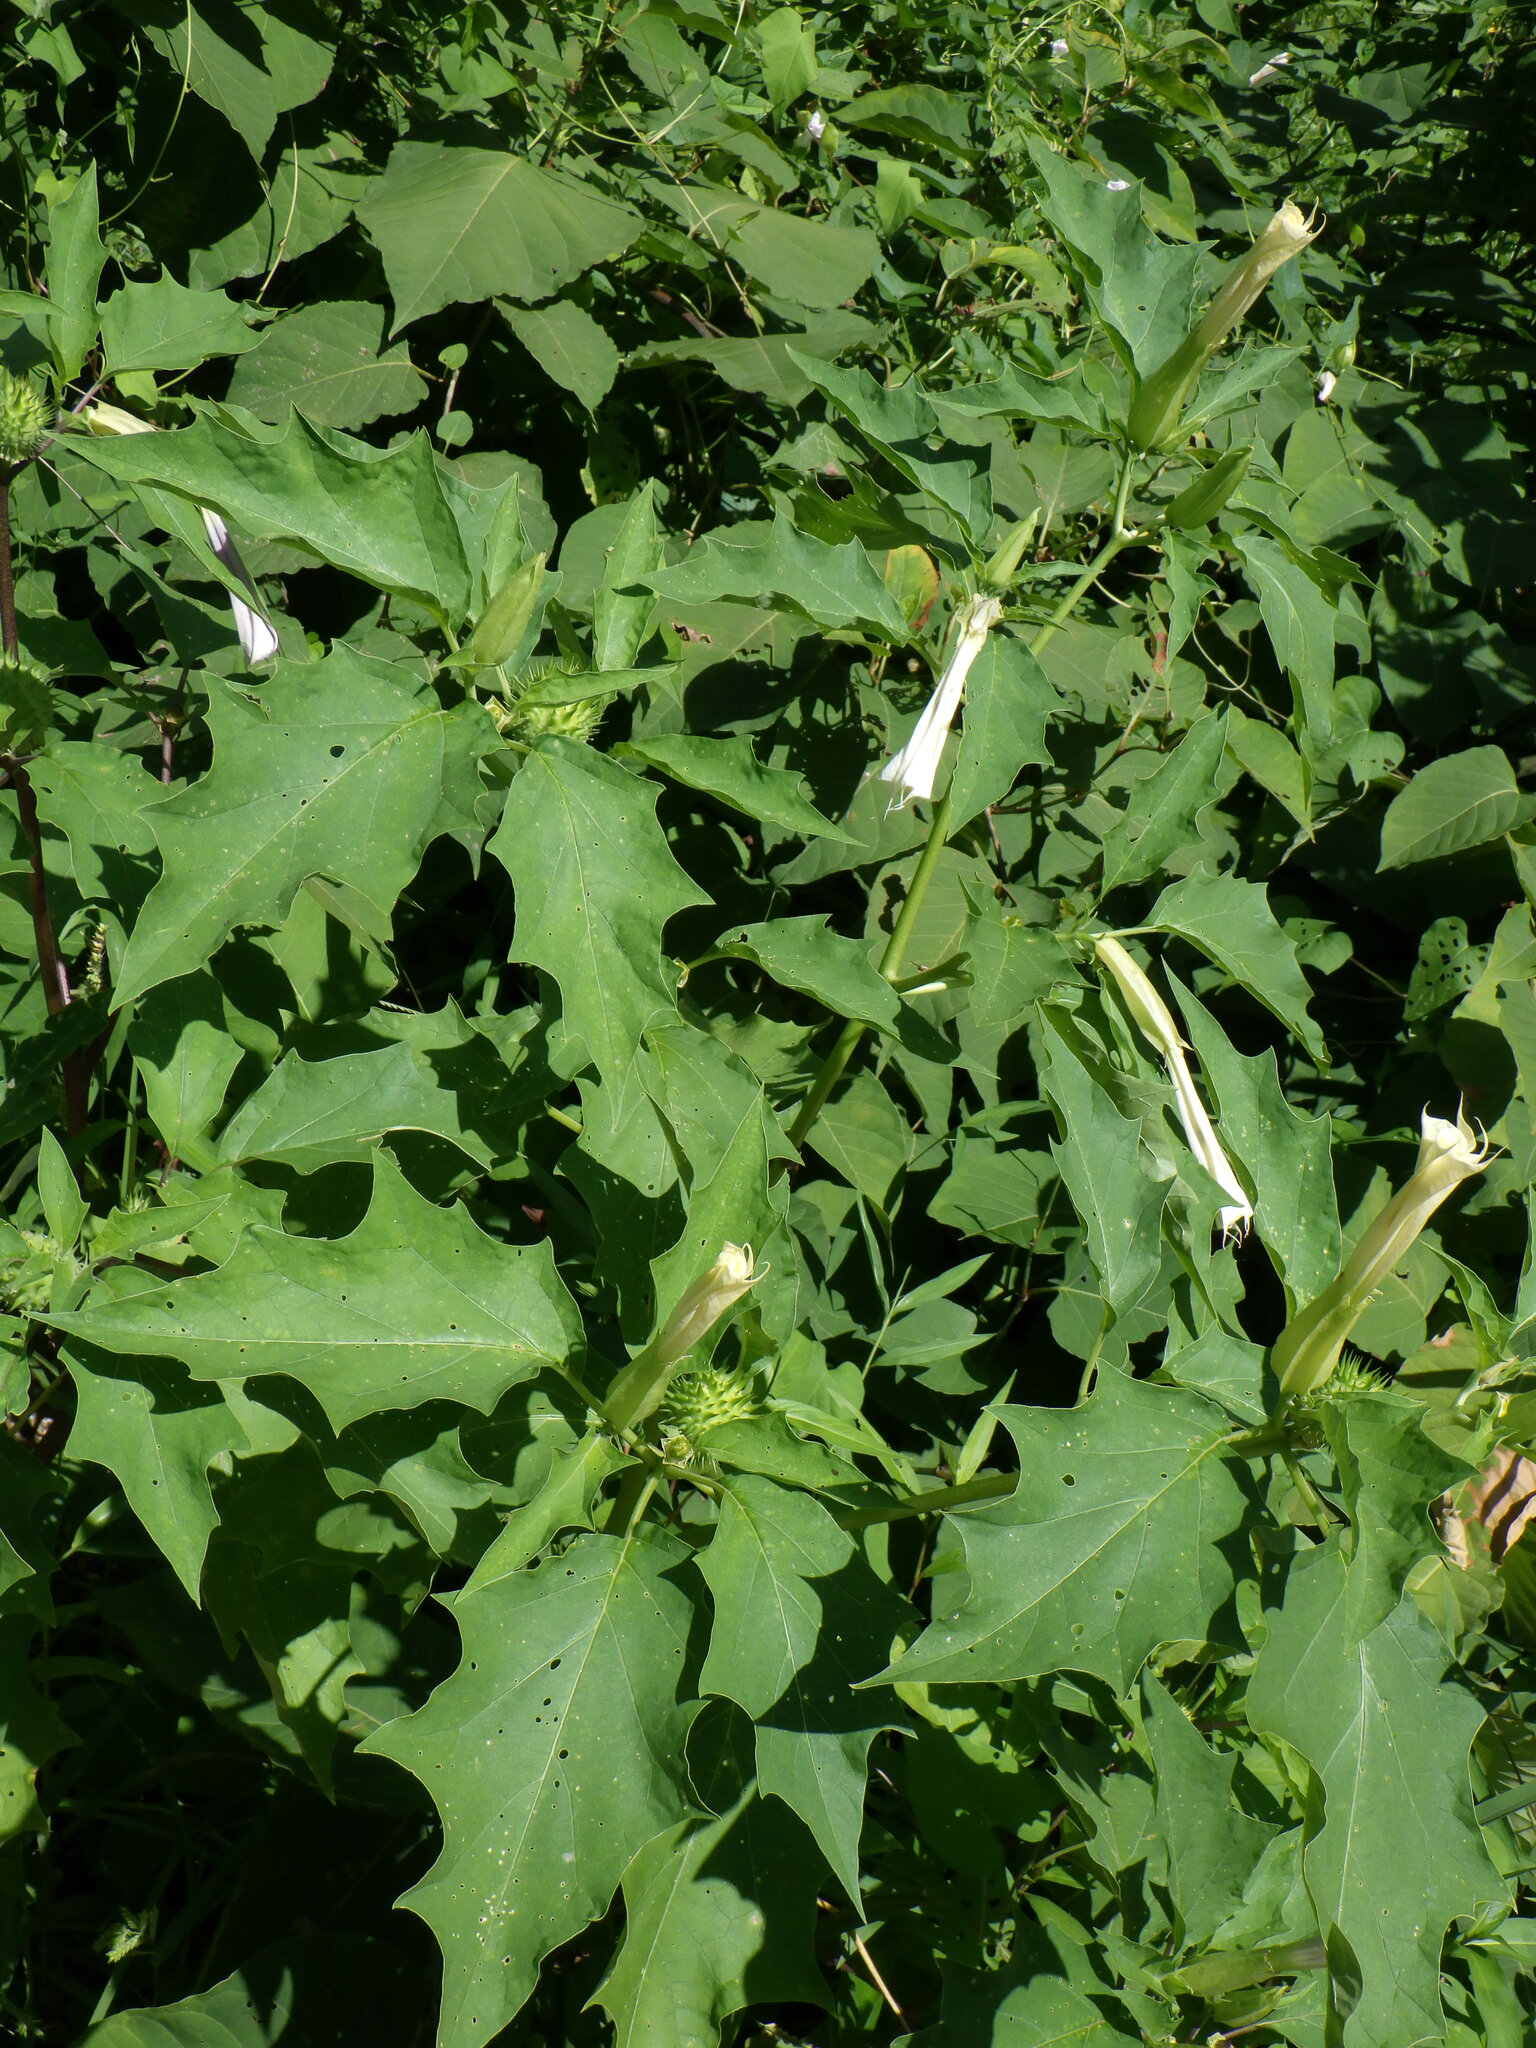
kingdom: Plantae
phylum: Tracheophyta
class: Magnoliopsida
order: Solanales
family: Solanaceae
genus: Datura
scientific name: Datura stramonium
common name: Thorn-apple
